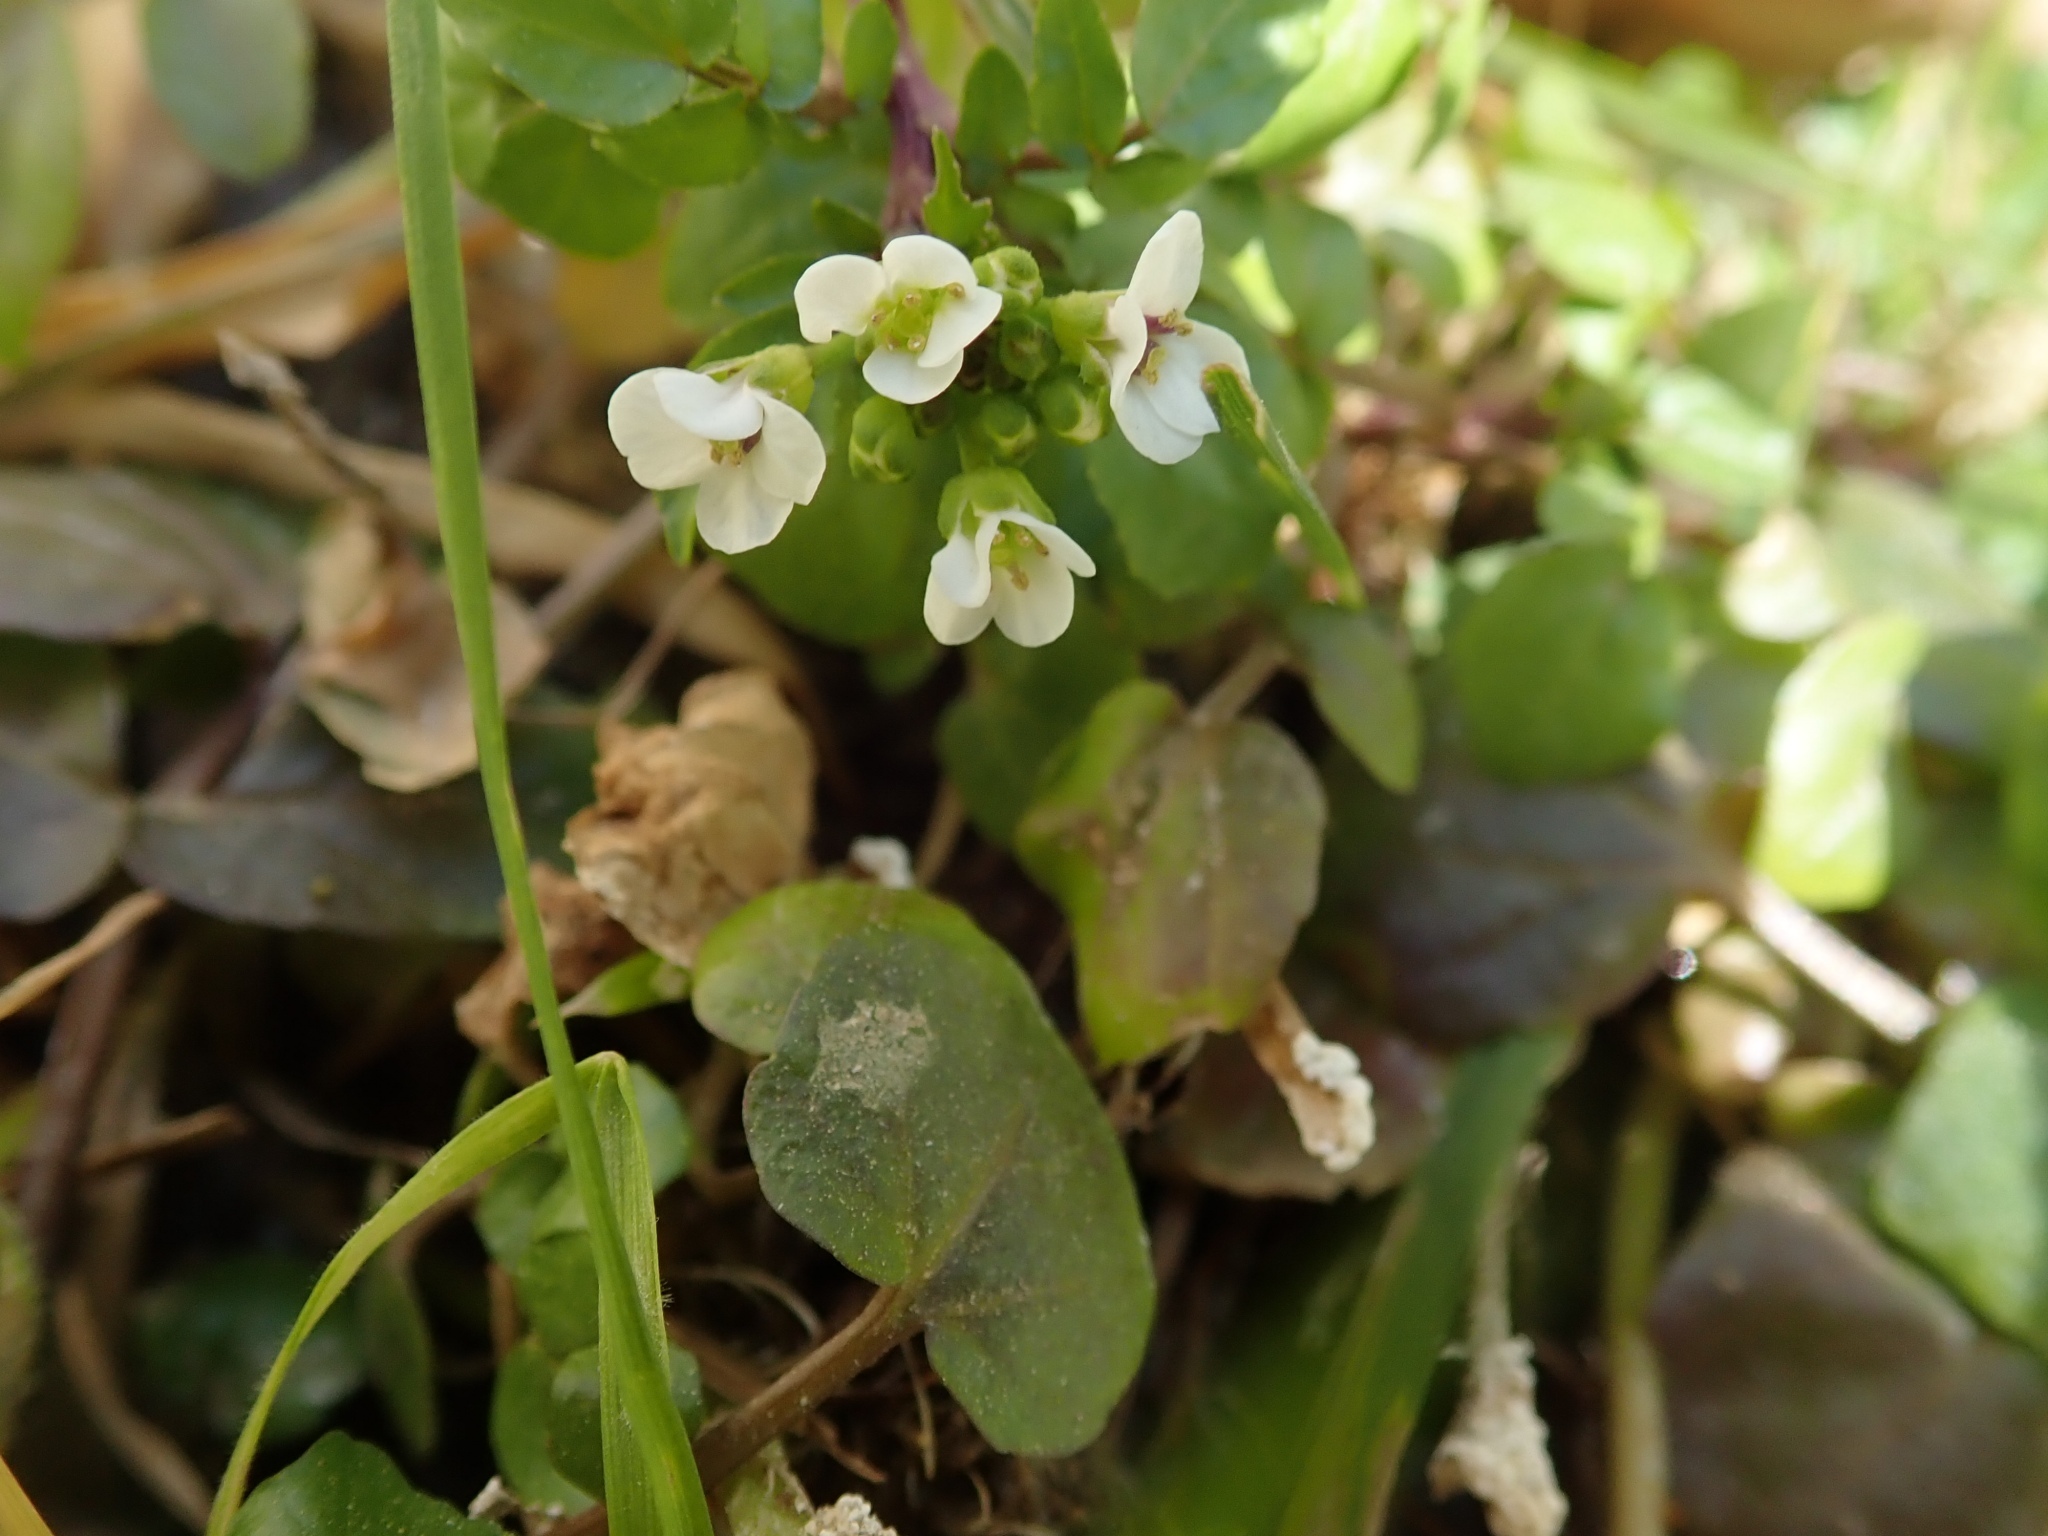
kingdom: Plantae
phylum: Tracheophyta
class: Magnoliopsida
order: Brassicales
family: Brassicaceae
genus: Nasturtium
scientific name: Nasturtium officinale
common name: Watercress
